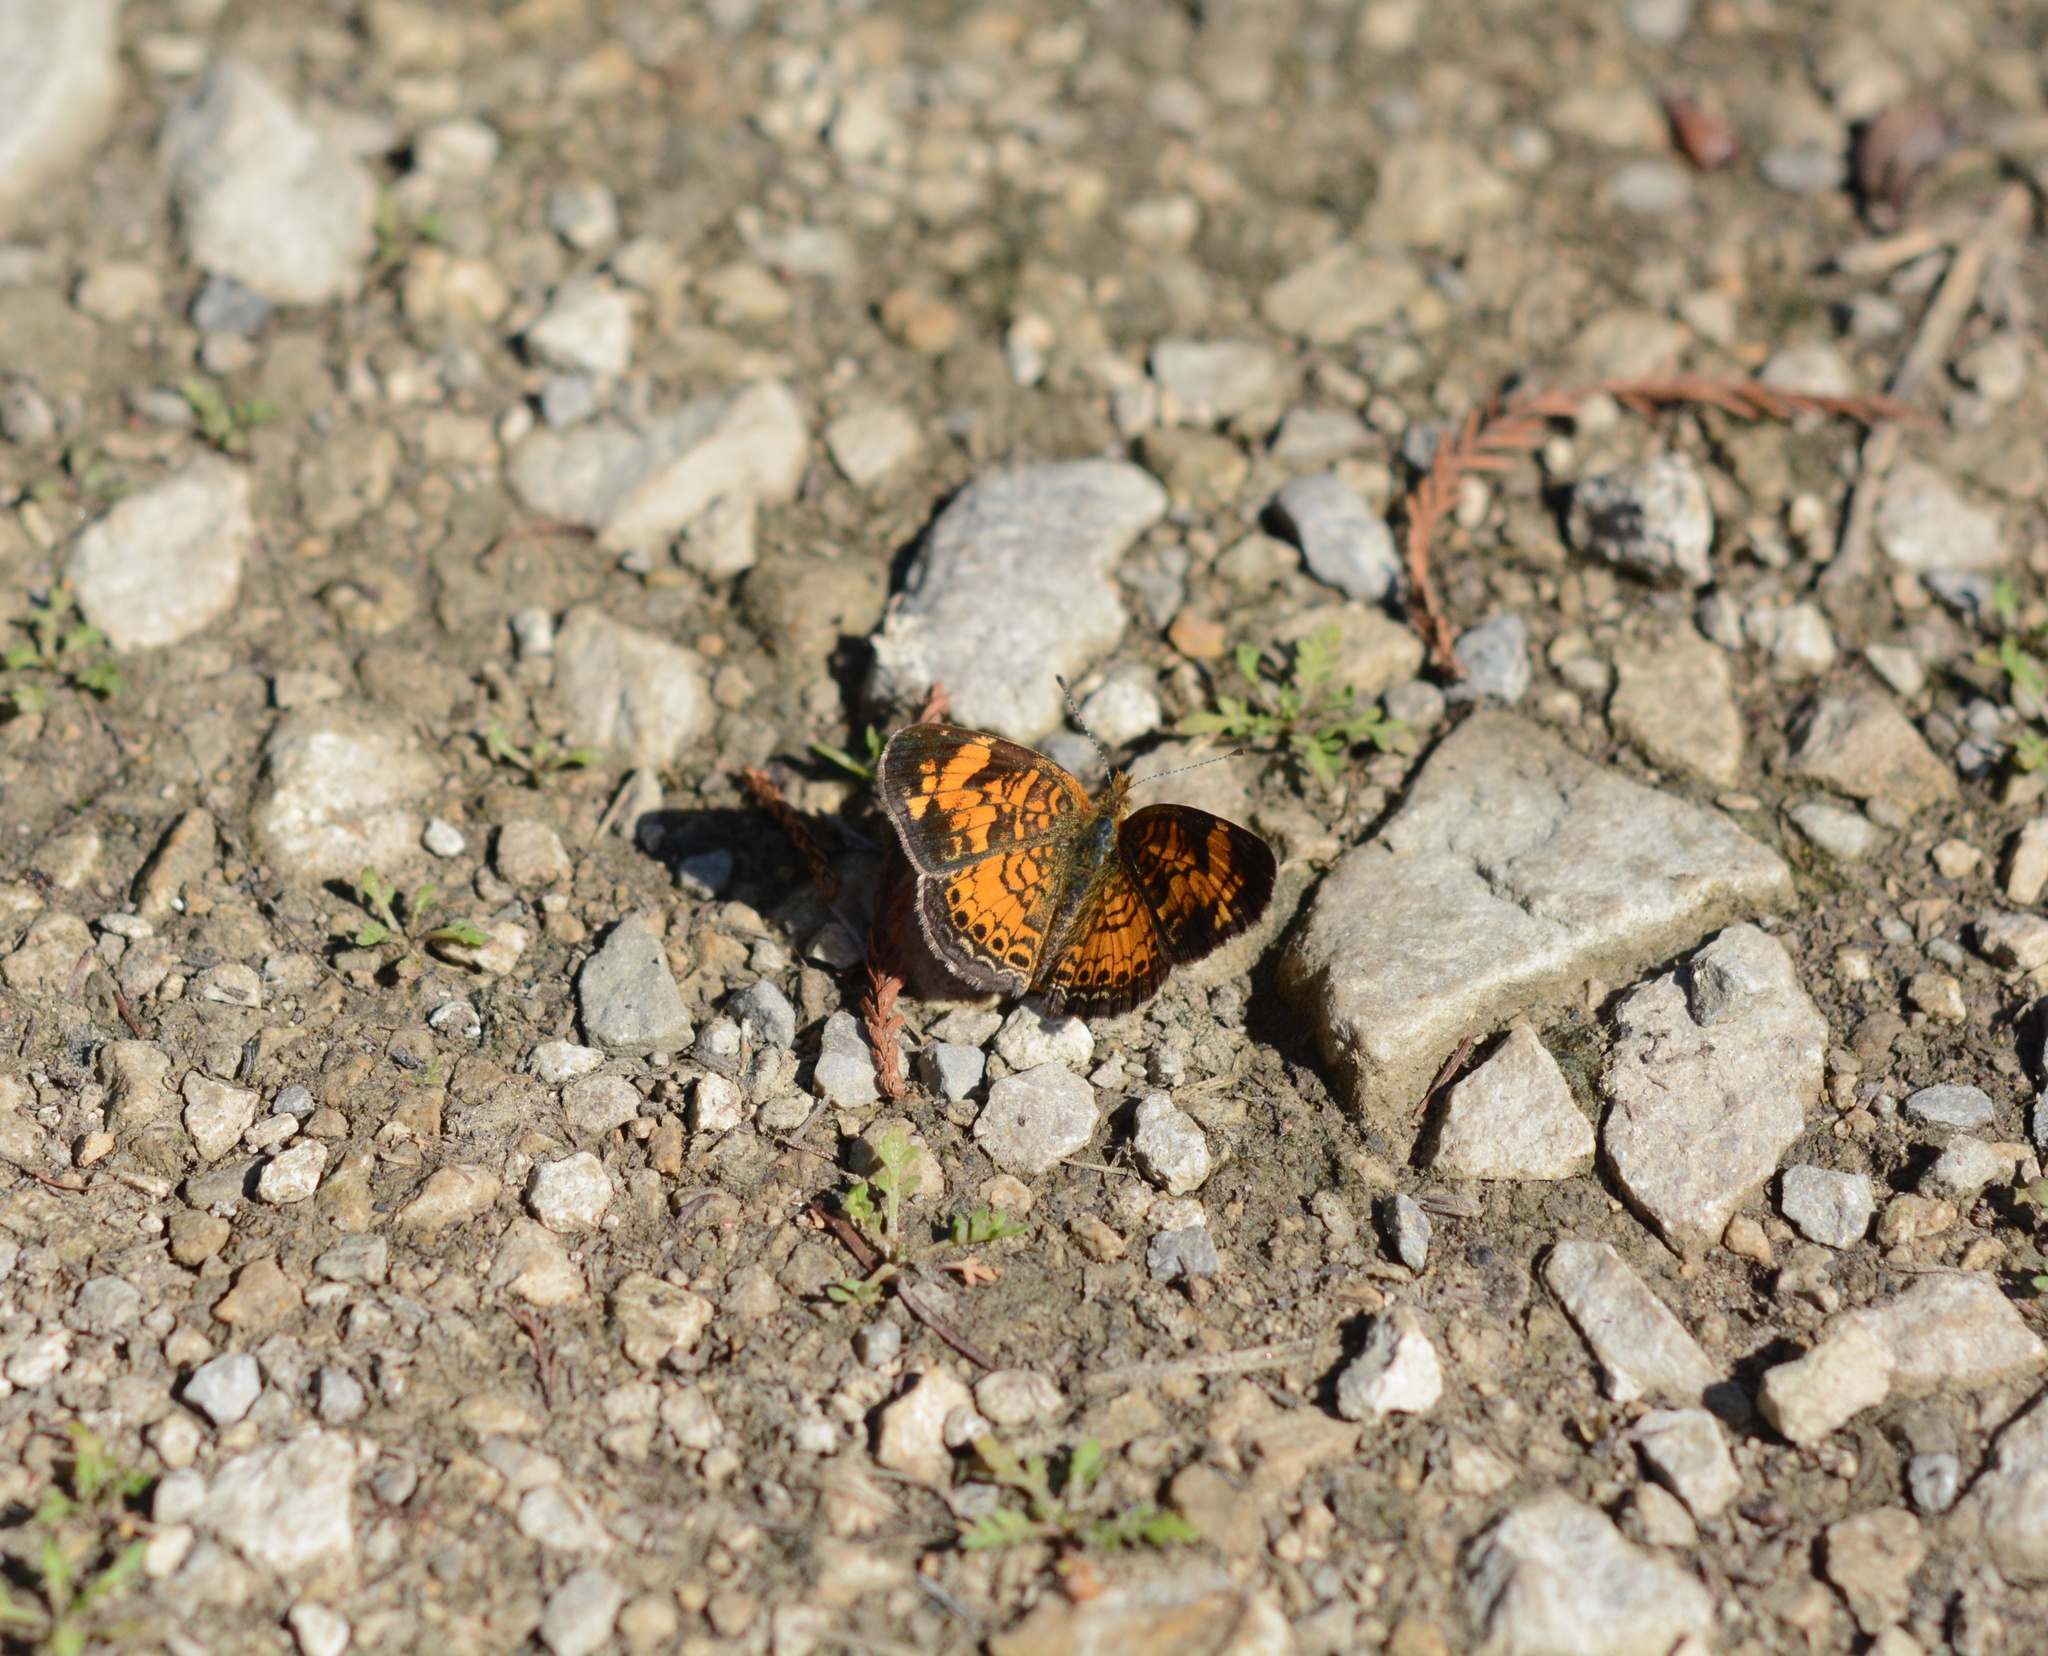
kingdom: Animalia
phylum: Arthropoda
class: Insecta
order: Lepidoptera
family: Nymphalidae
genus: Phyciodes
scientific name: Phyciodes tharos
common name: Pearl crescent
